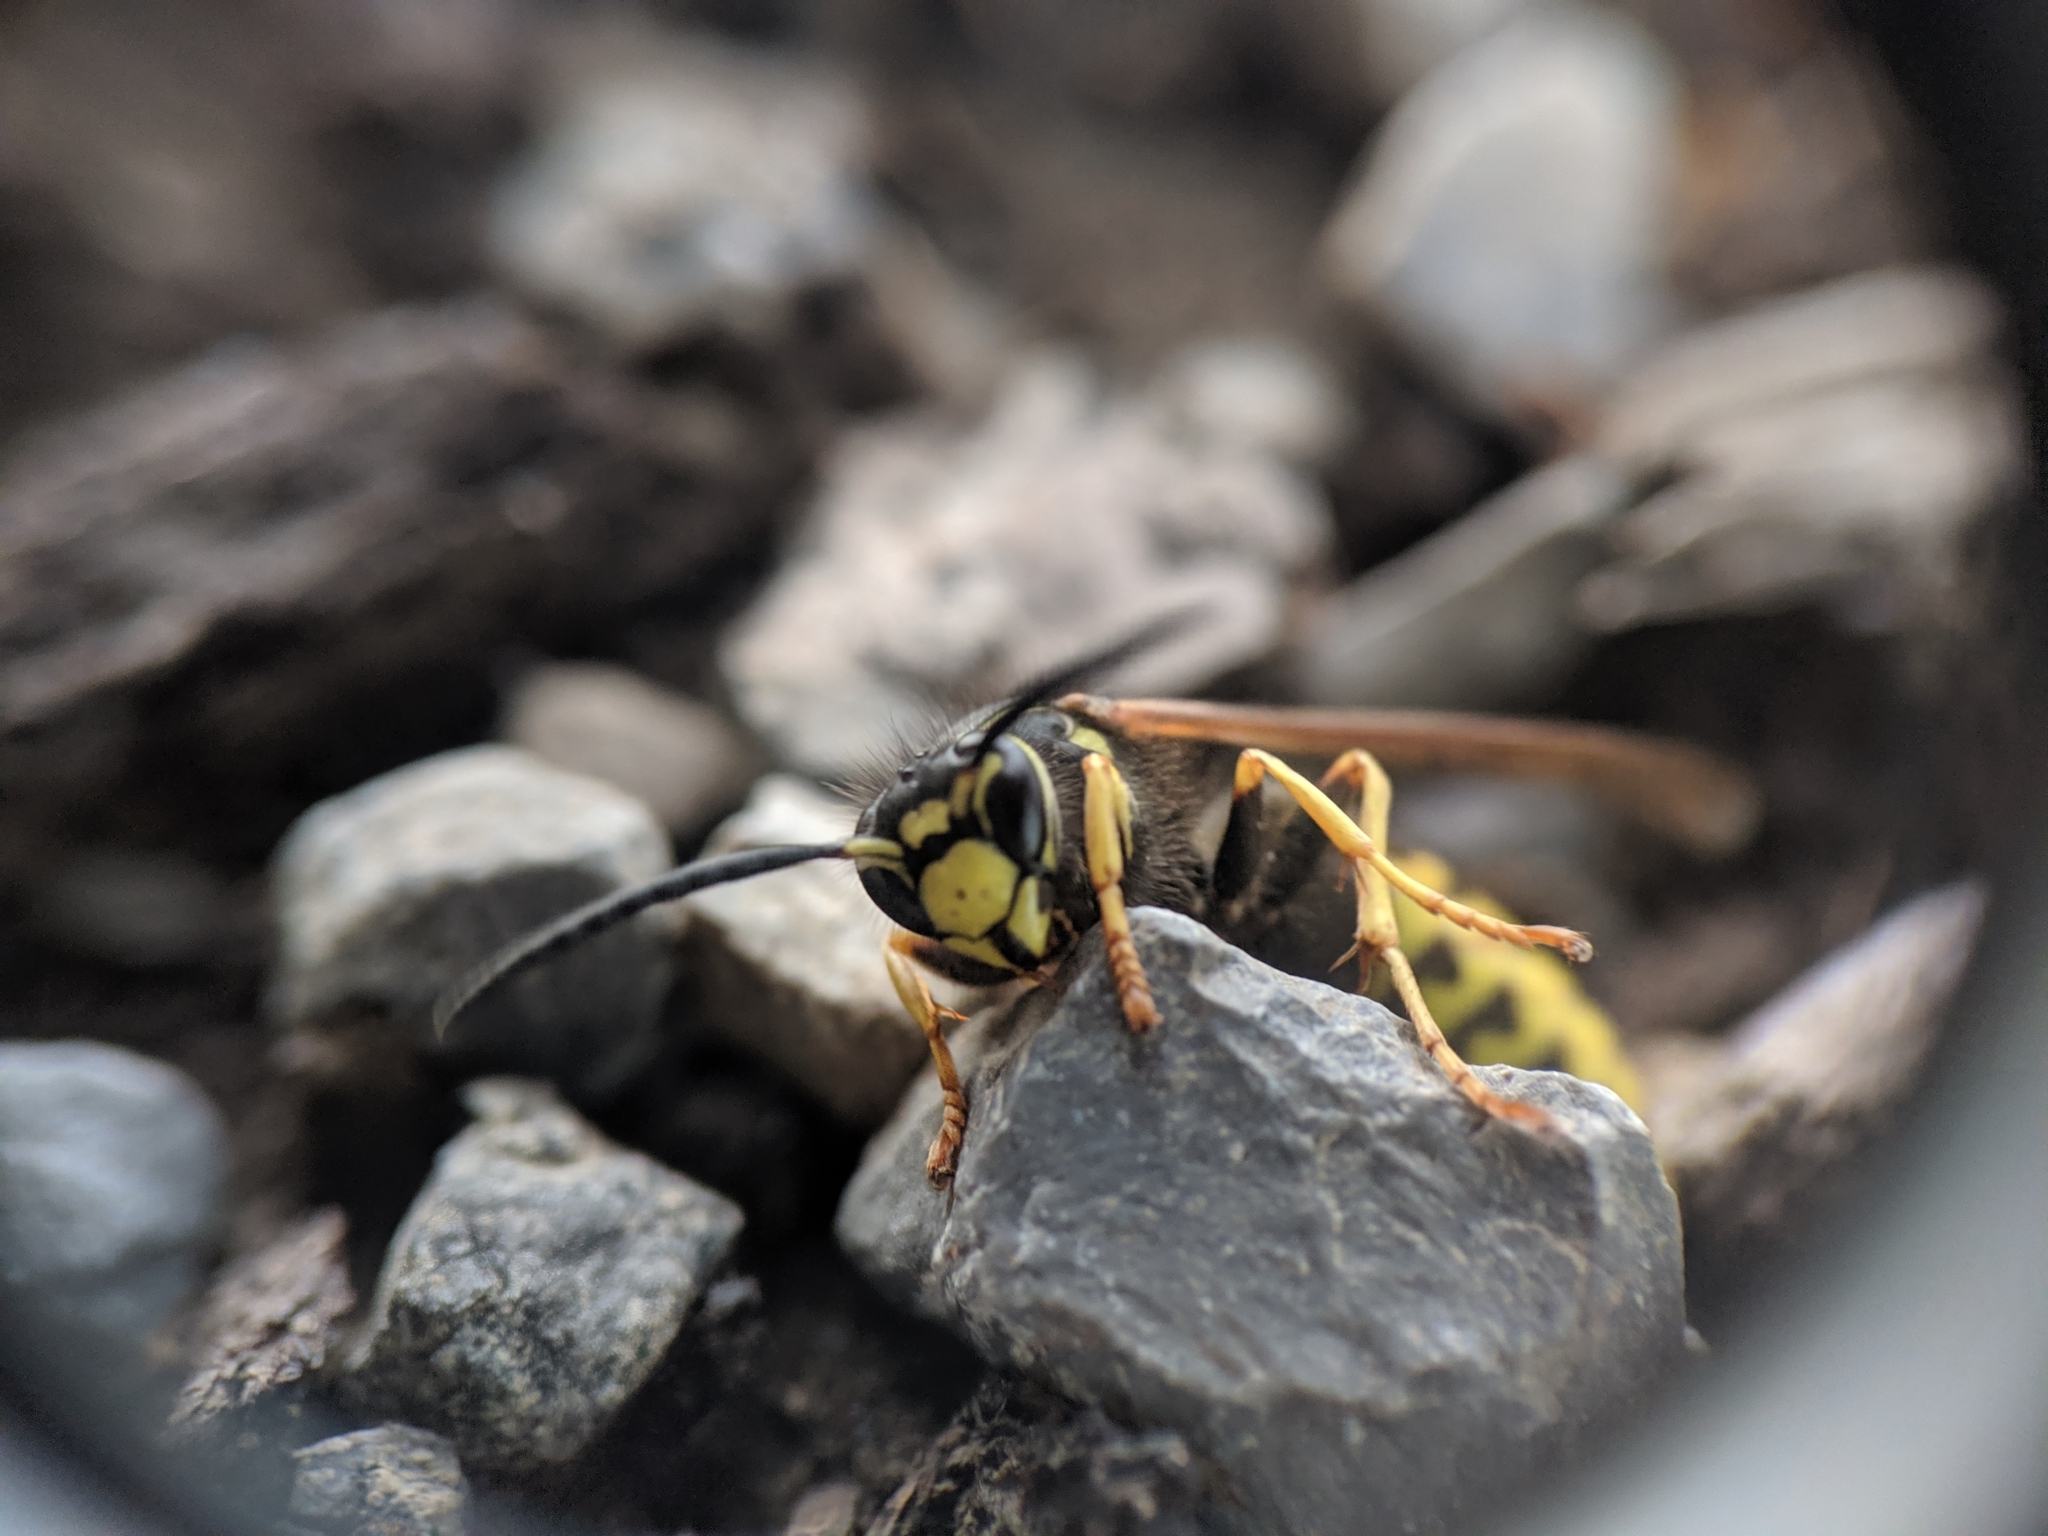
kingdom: Animalia
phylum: Arthropoda
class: Insecta
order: Hymenoptera
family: Vespidae
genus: Vespula
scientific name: Vespula vidua
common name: Widow yellowjacket
